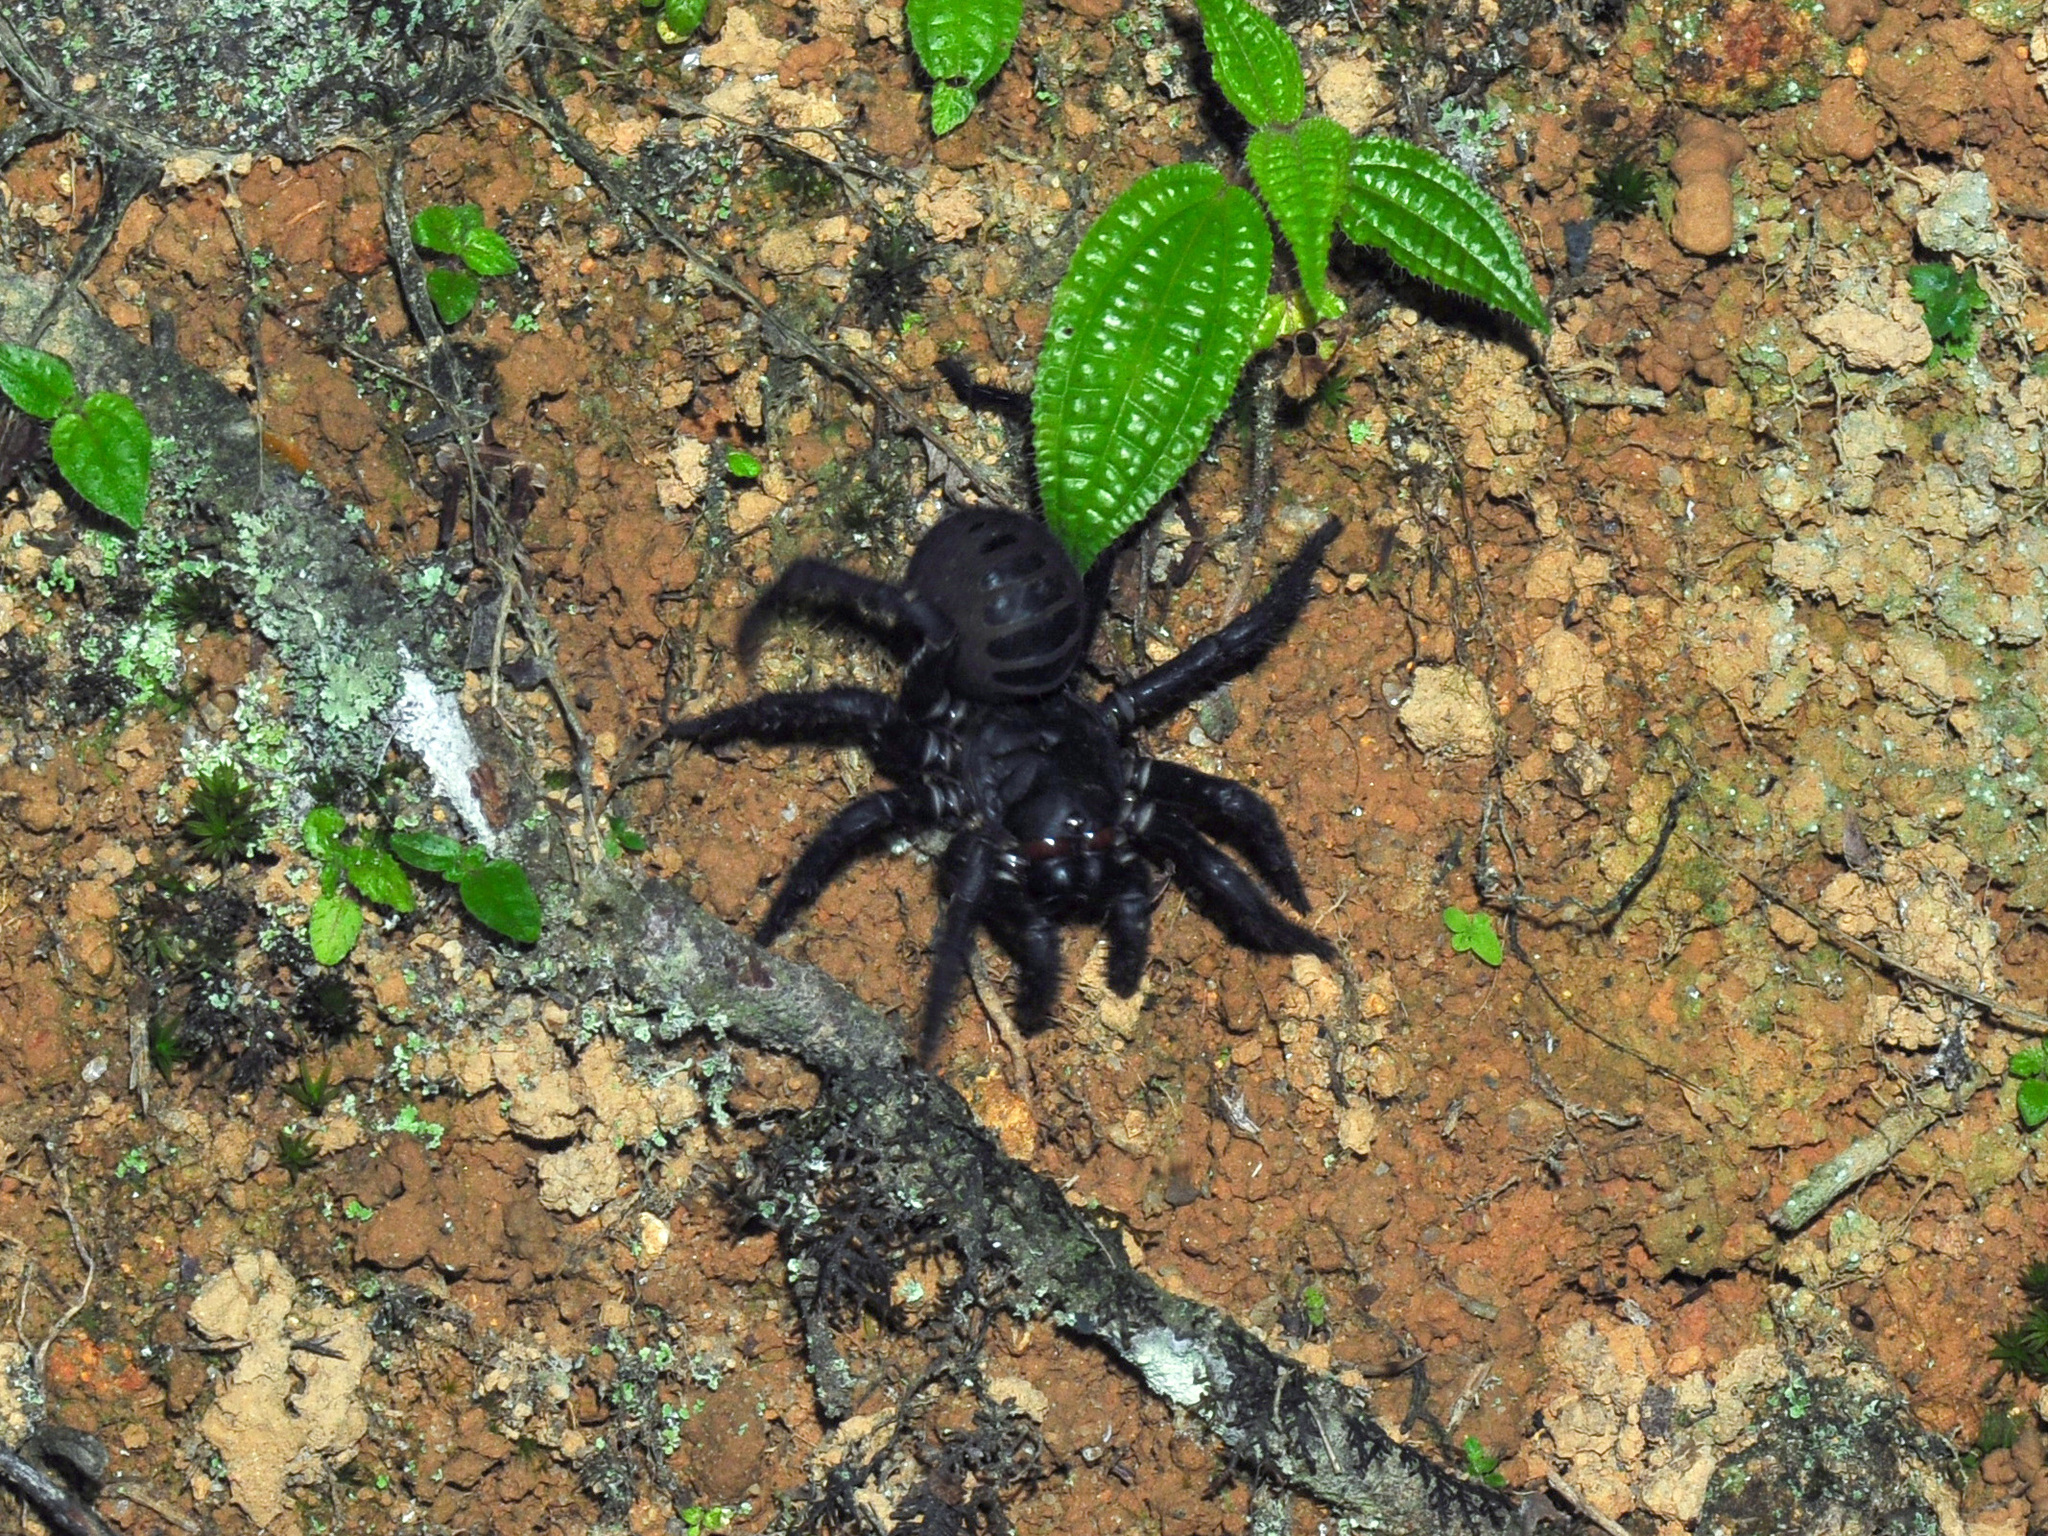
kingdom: Animalia
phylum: Arthropoda
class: Arachnida
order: Araneae
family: Liphistiidae
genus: Liphistius
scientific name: Liphistius malayanus
